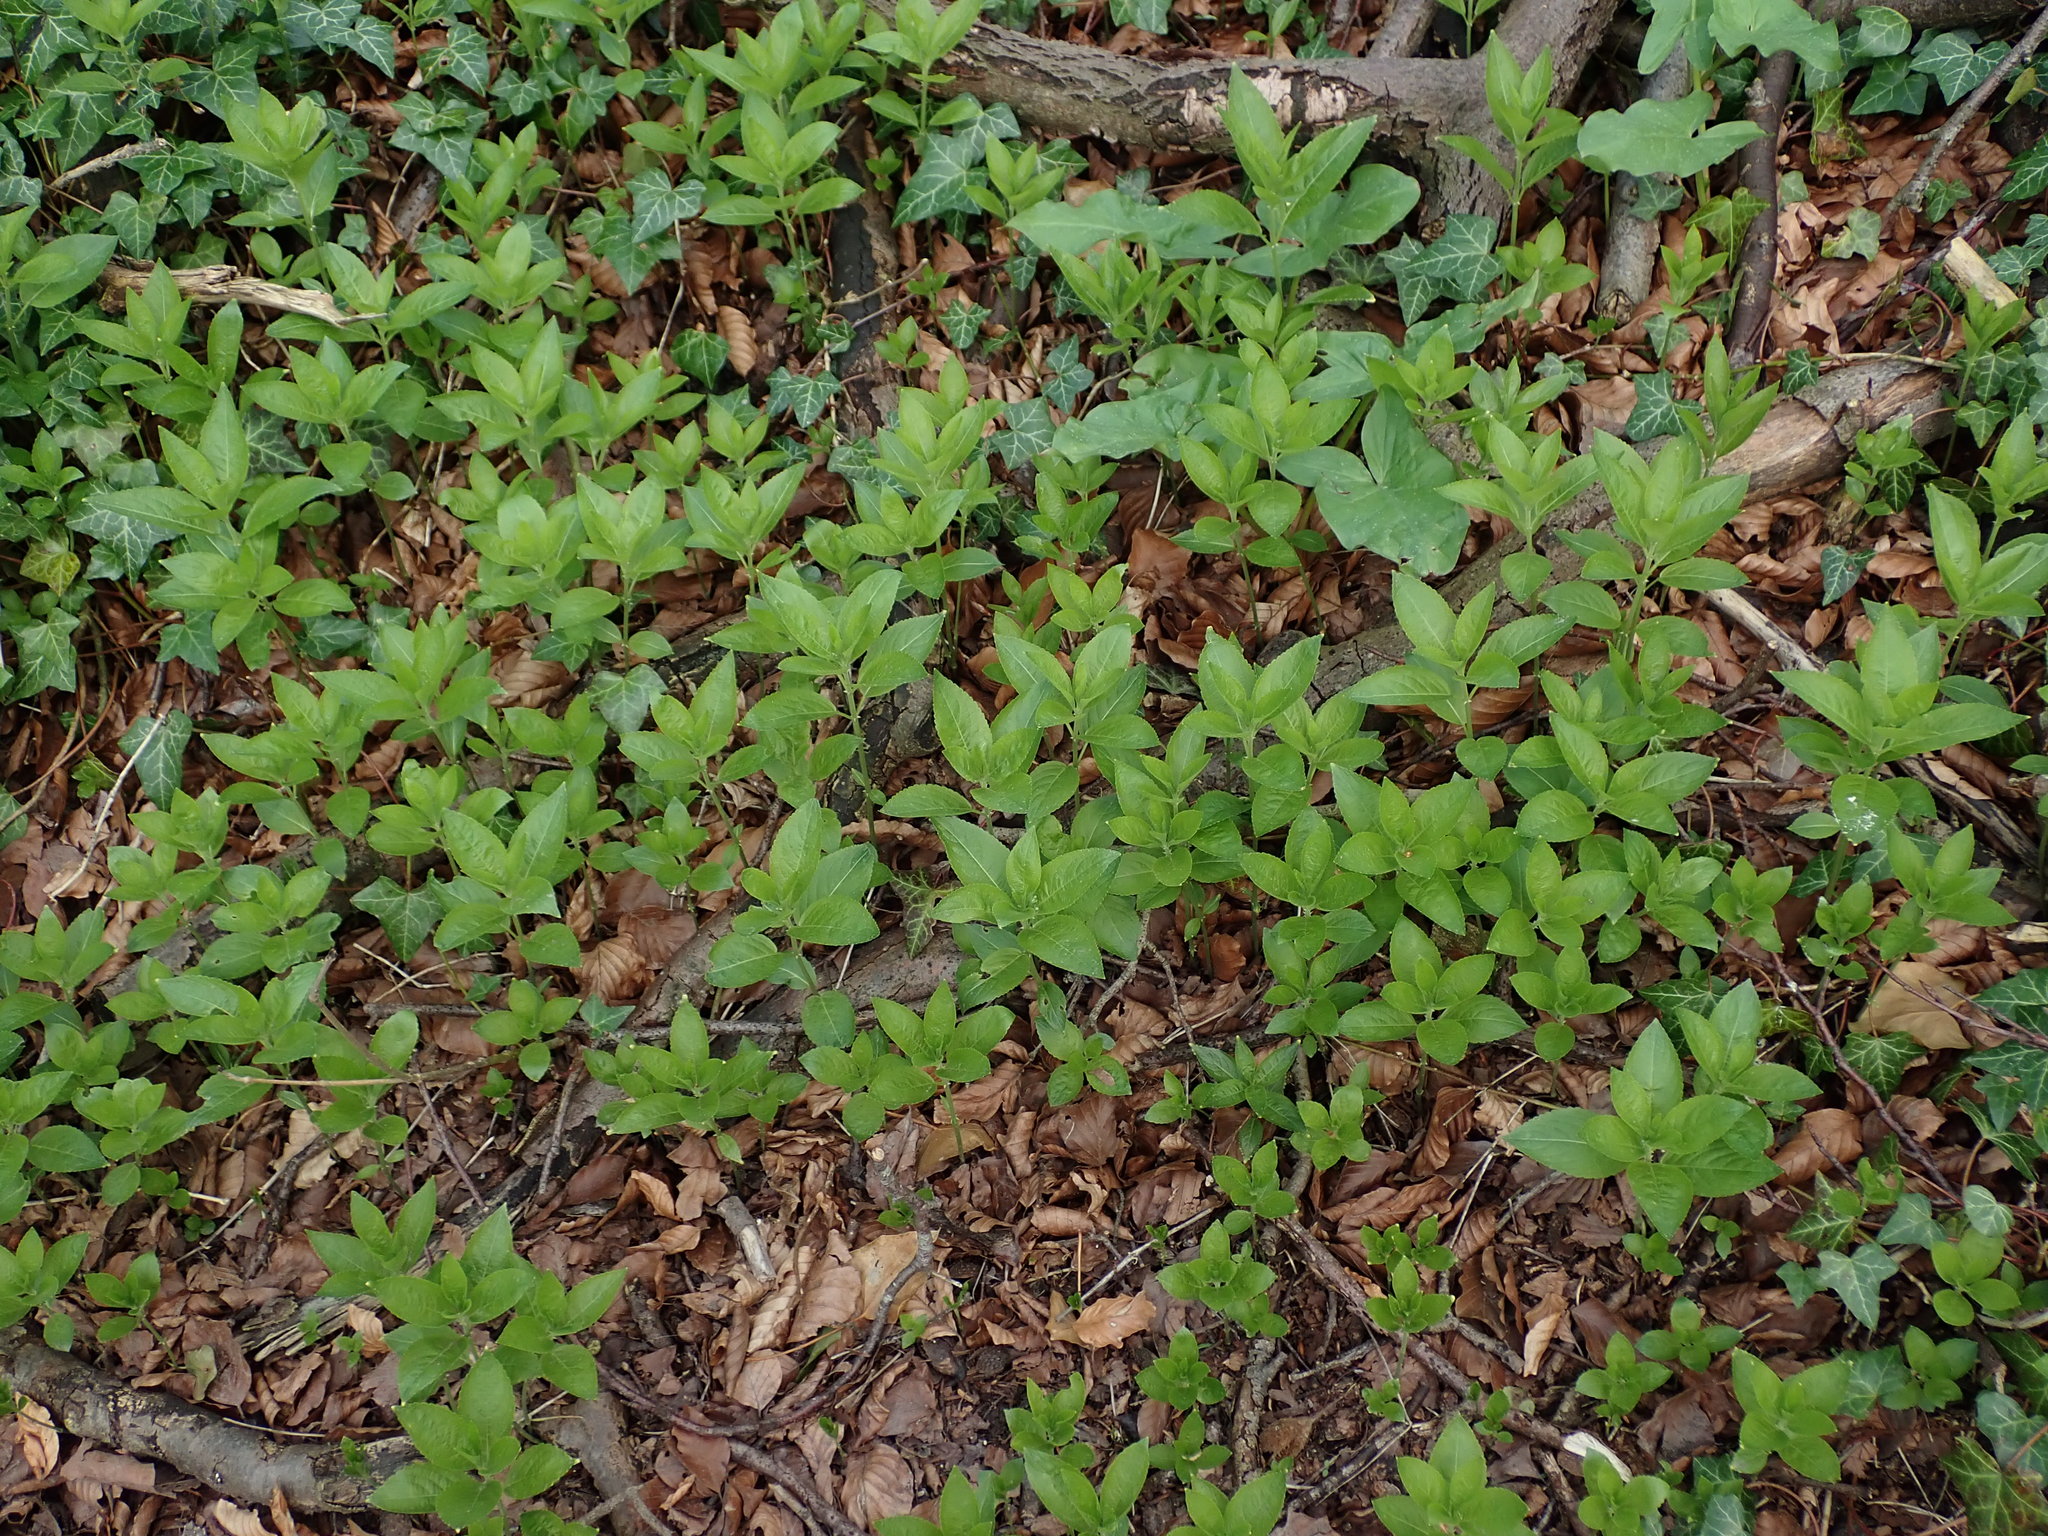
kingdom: Plantae
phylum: Tracheophyta
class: Magnoliopsida
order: Malpighiales
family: Euphorbiaceae
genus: Mercurialis
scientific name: Mercurialis perennis
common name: Dog mercury
